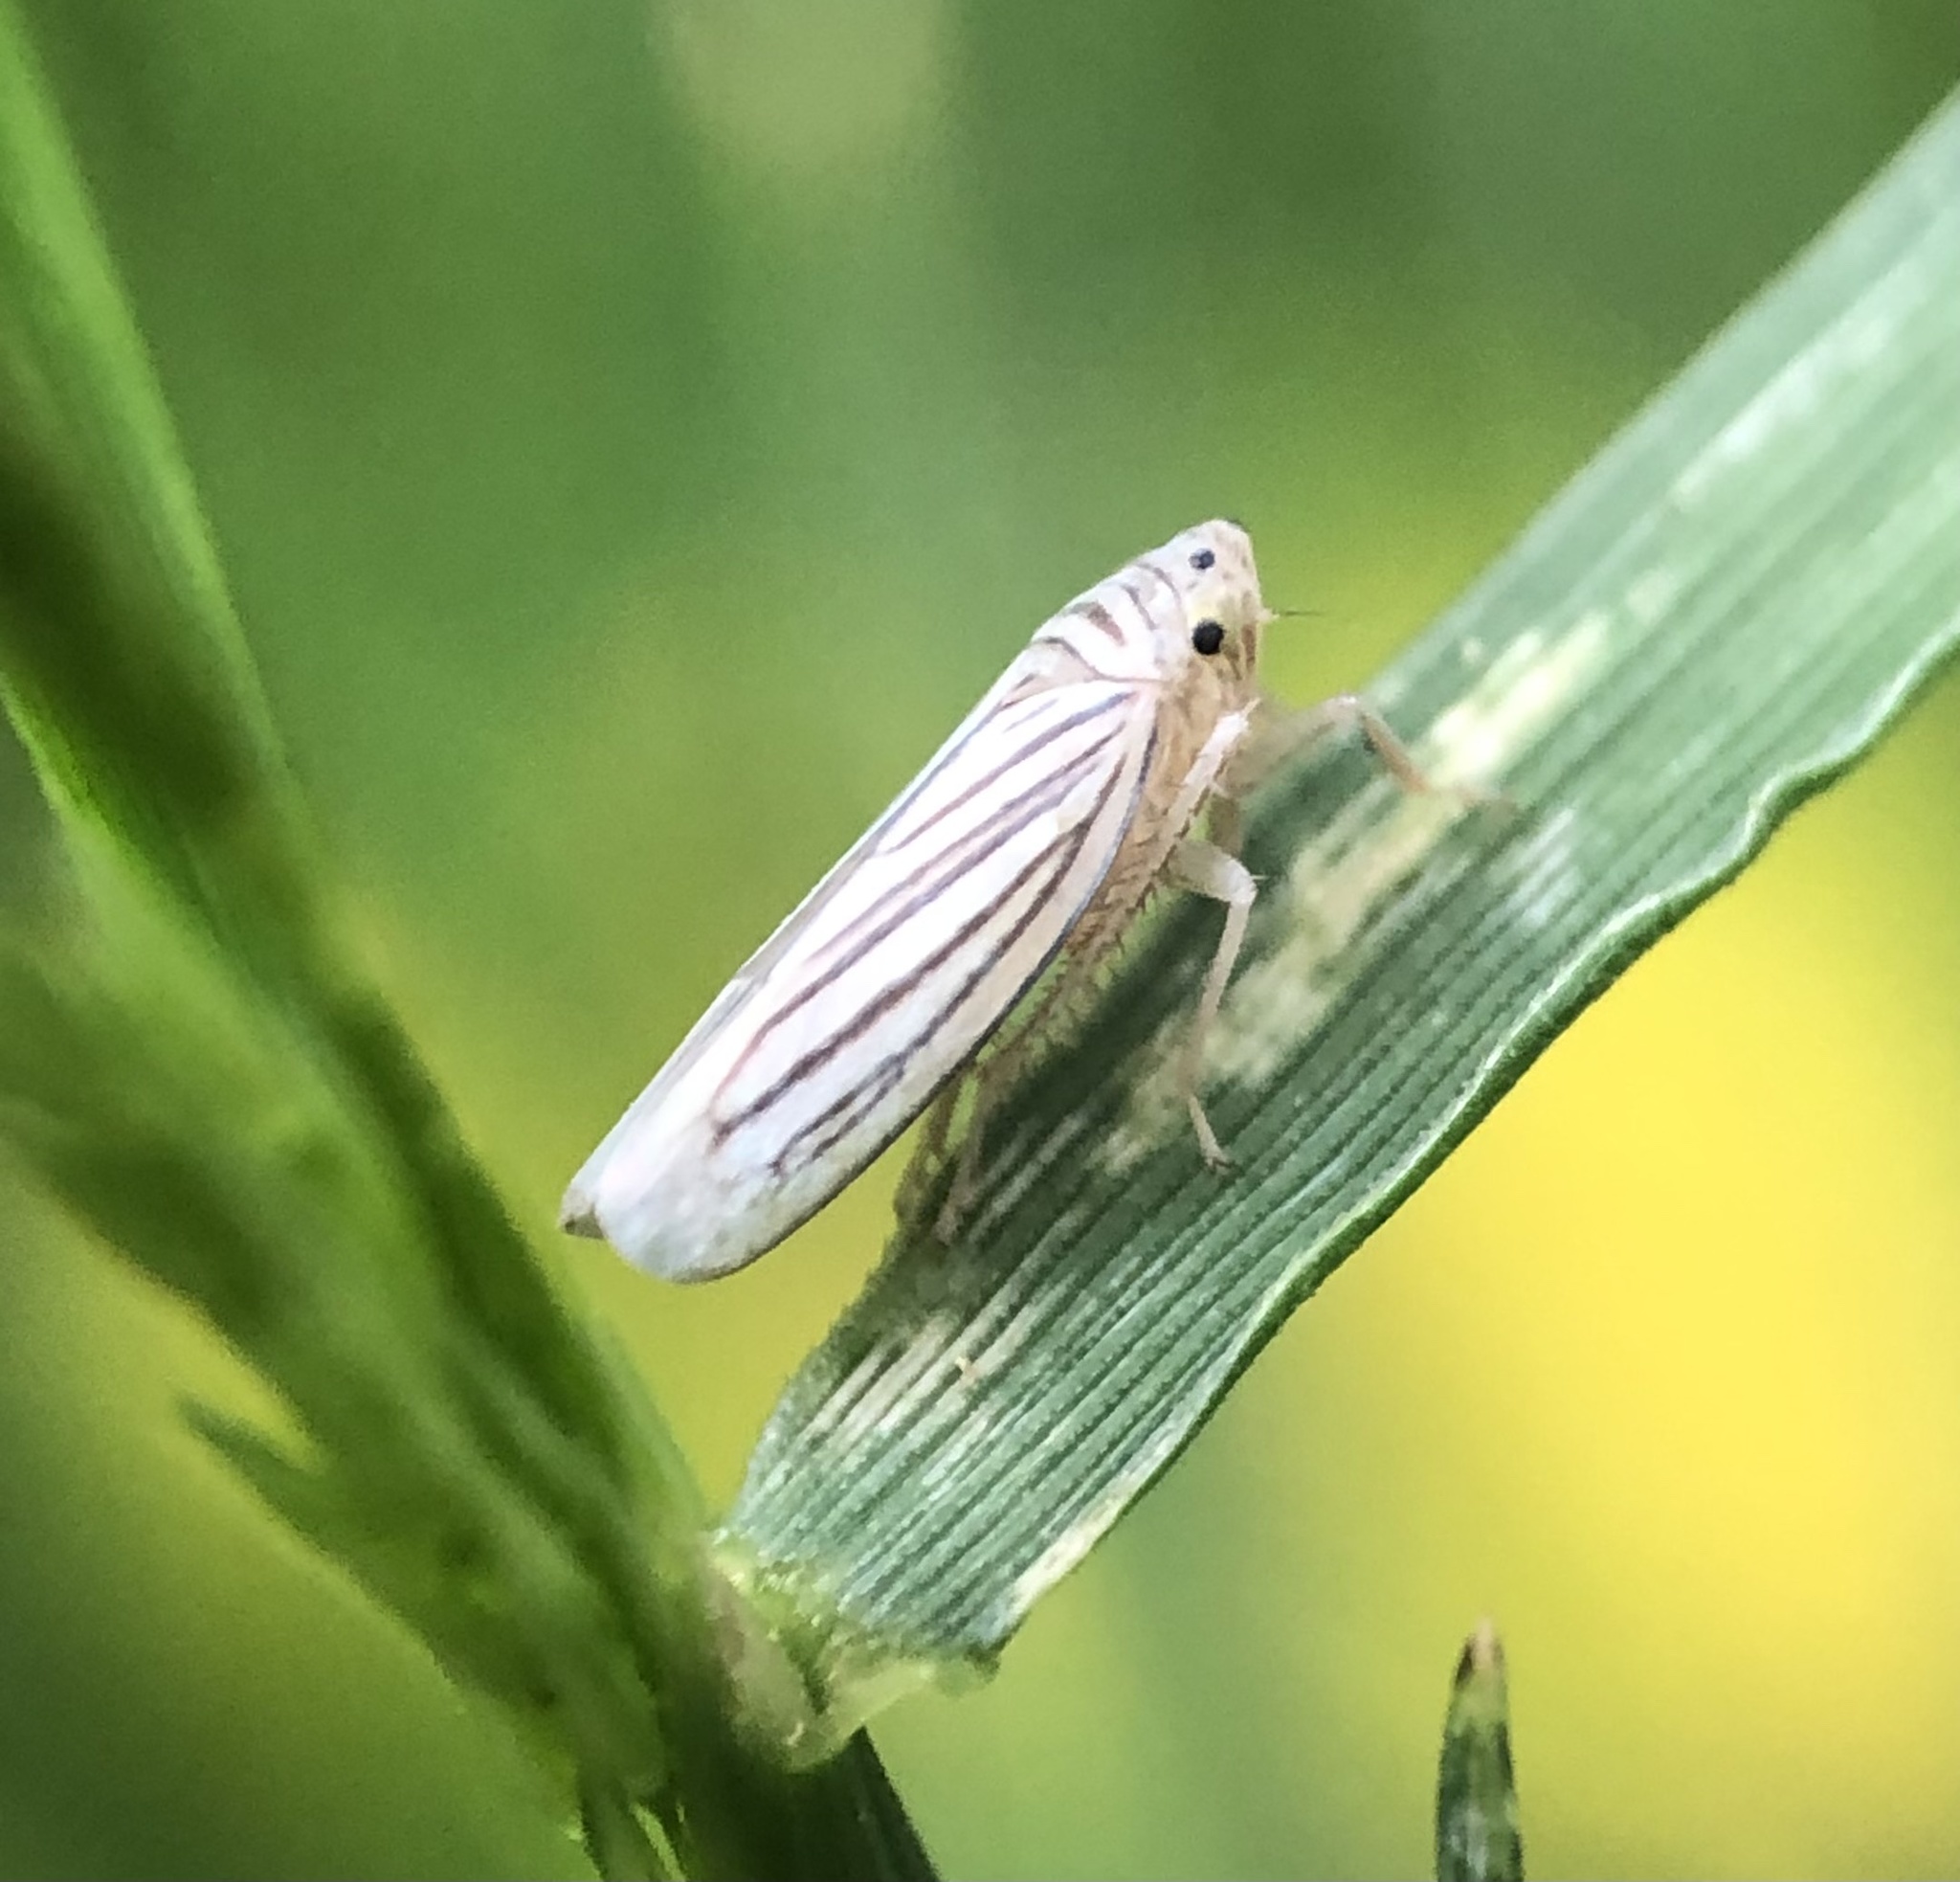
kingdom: Animalia
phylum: Arthropoda
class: Insecta
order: Hemiptera
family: Cicadellidae
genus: Provancherana
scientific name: Provancherana tripunctata
